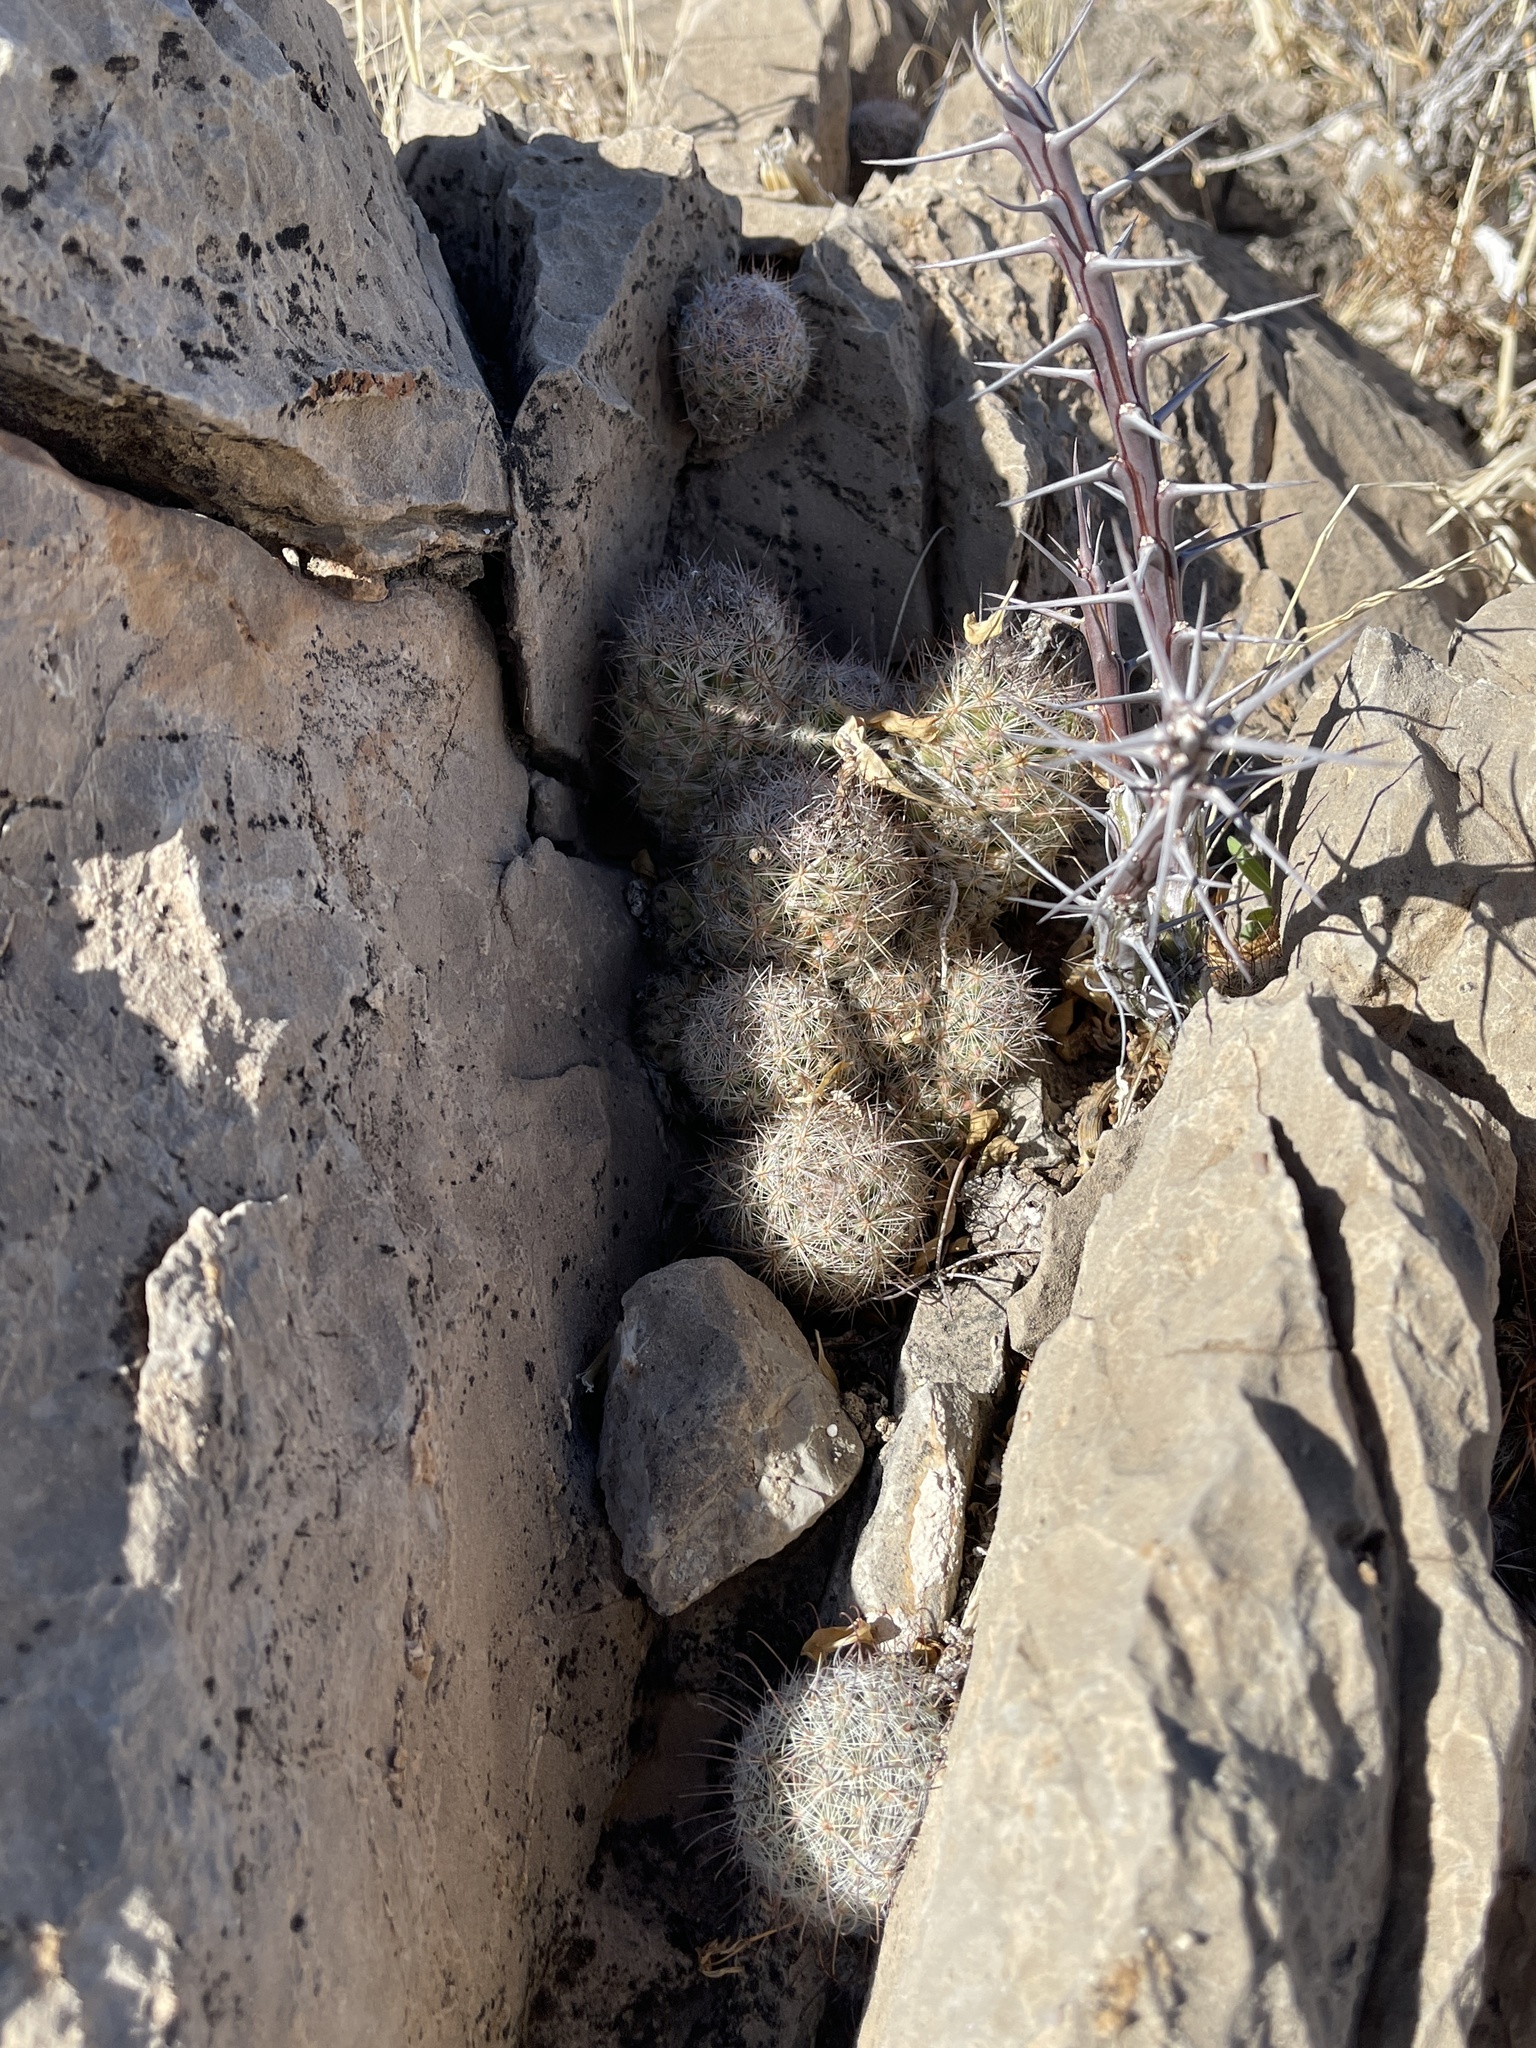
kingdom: Plantae
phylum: Tracheophyta
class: Magnoliopsida
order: Caryophyllales
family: Cactaceae
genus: Pelecyphora
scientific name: Pelecyphora tuberculosa
